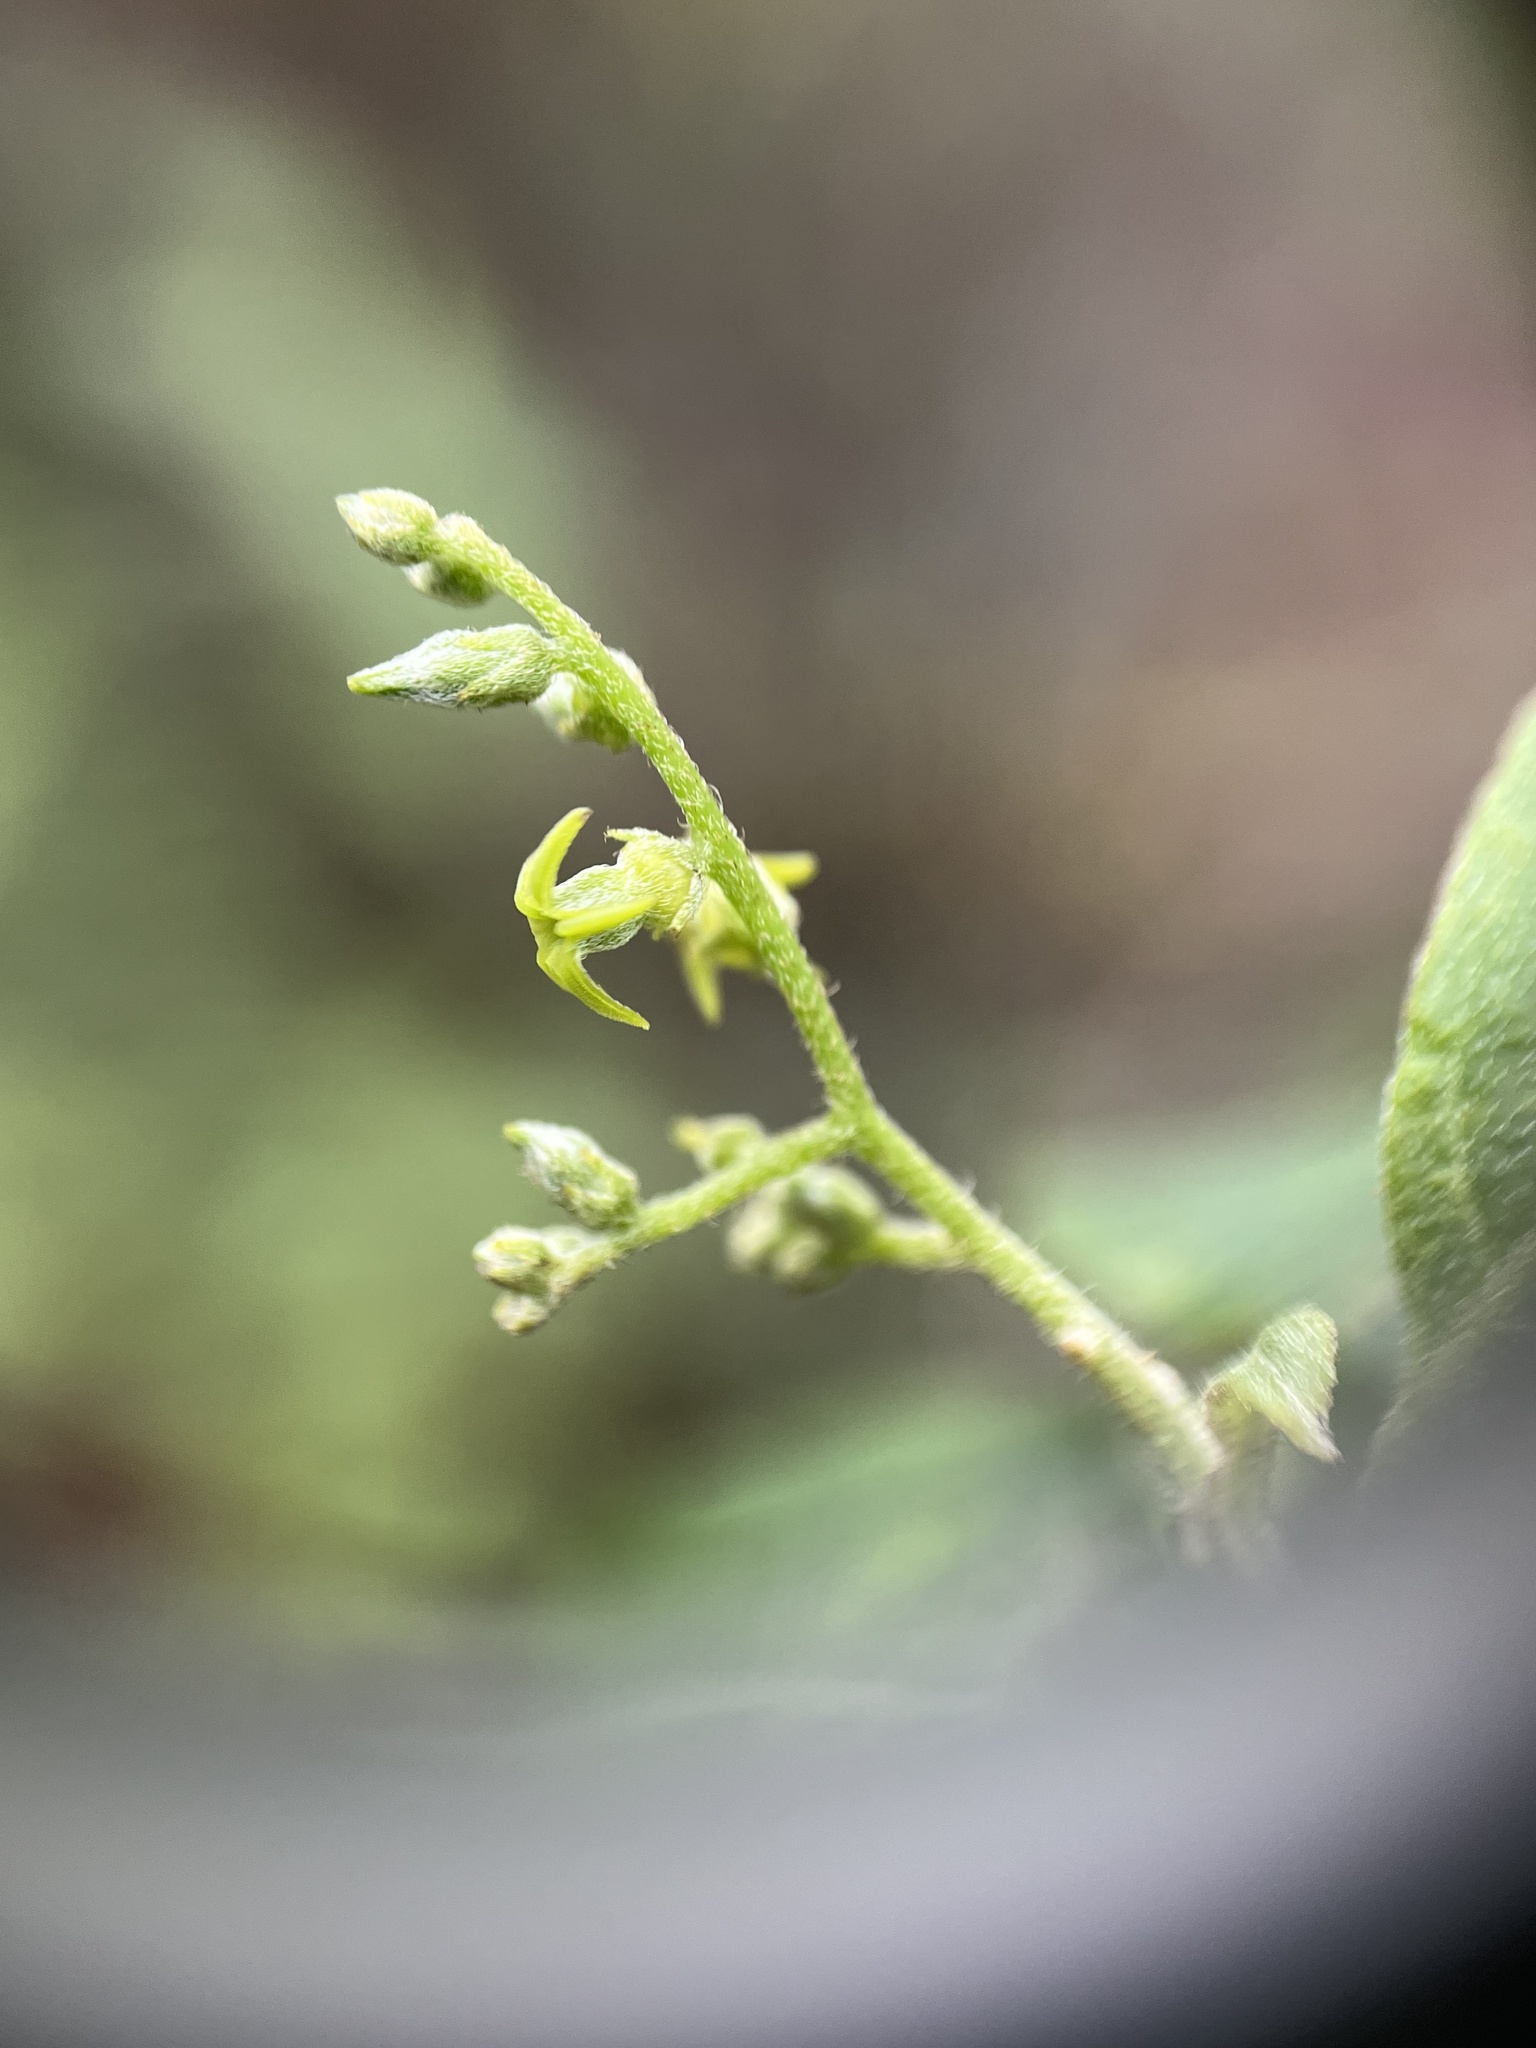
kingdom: Plantae
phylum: Tracheophyta
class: Magnoliopsida
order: Boraginales
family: Heliotropiaceae
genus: Myriopus
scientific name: Myriopus volubilis
